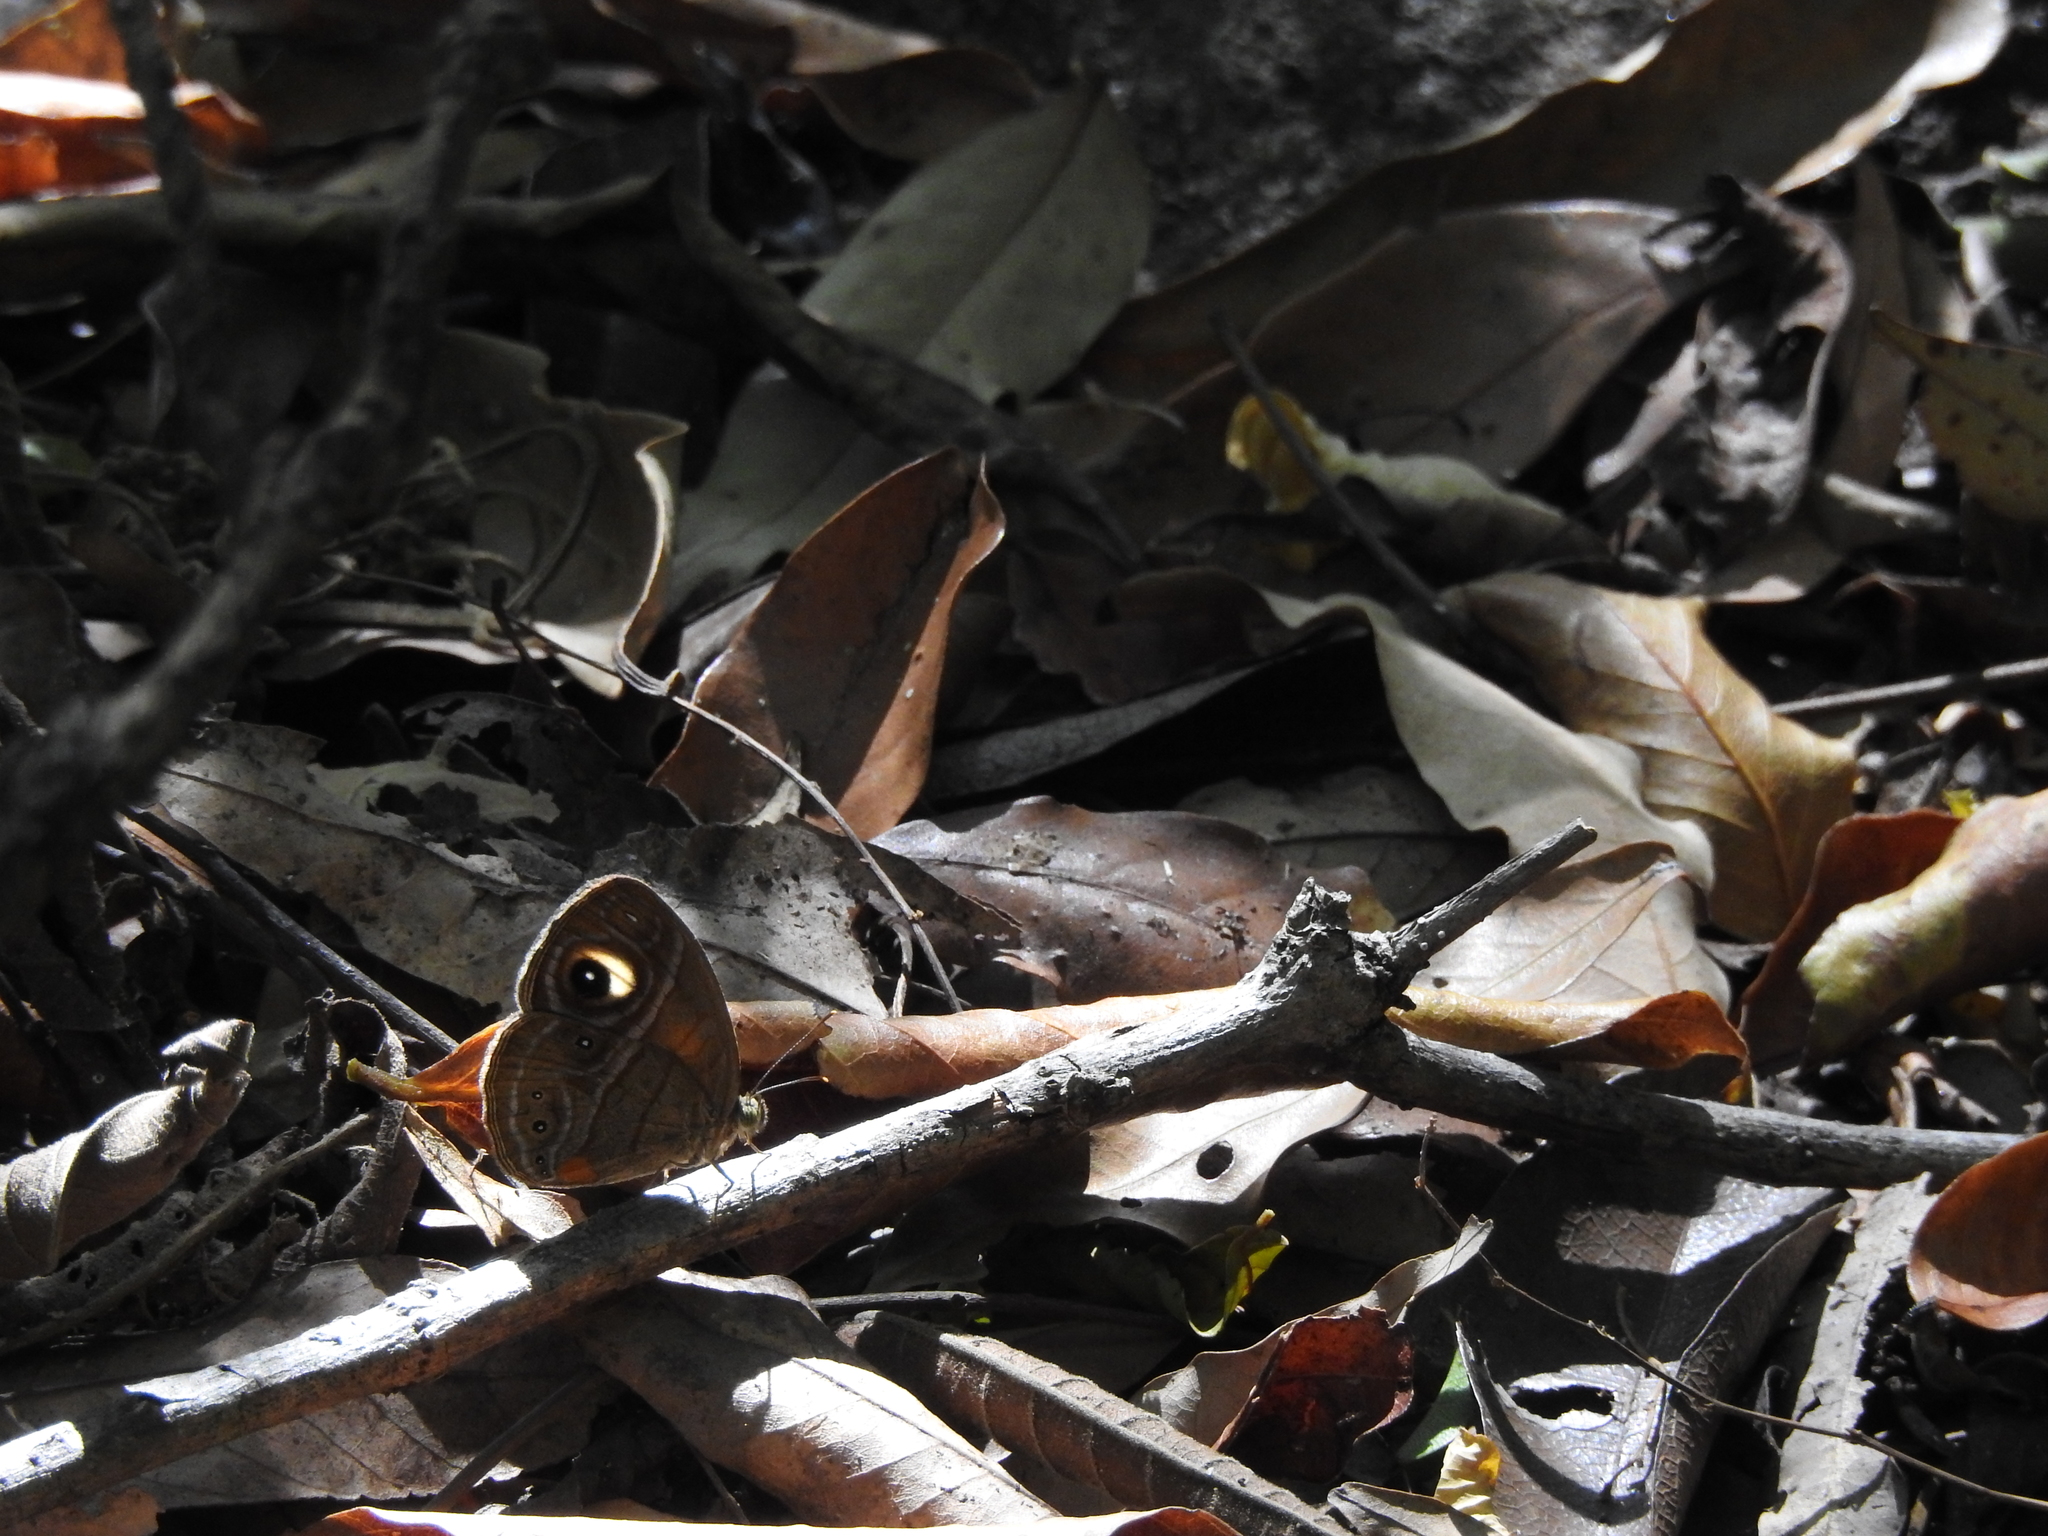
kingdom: Animalia
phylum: Arthropoda
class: Insecta
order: Lepidoptera
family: Nymphalidae
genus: Mycalesis
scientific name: Mycalesis patnia
